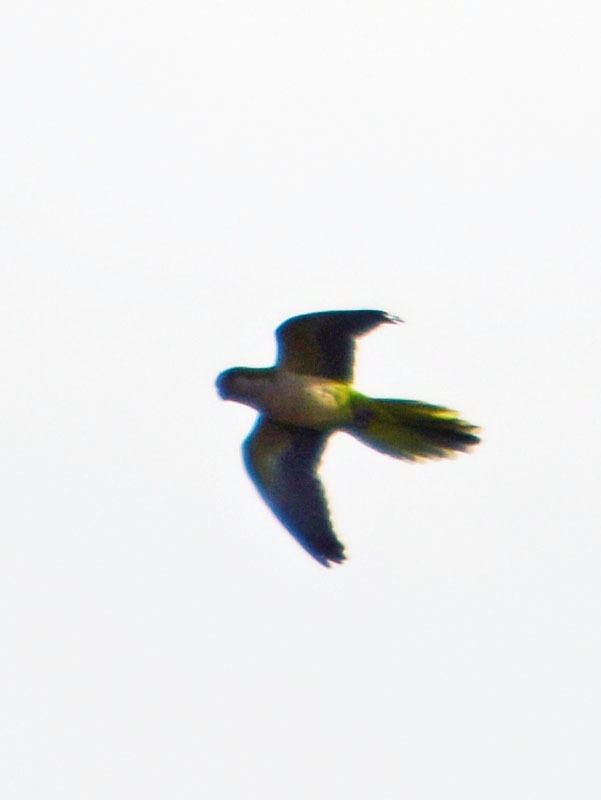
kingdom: Animalia
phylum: Chordata
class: Aves
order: Psittaciformes
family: Psittacidae
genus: Myiopsitta
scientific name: Myiopsitta monachus
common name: Monk parakeet
